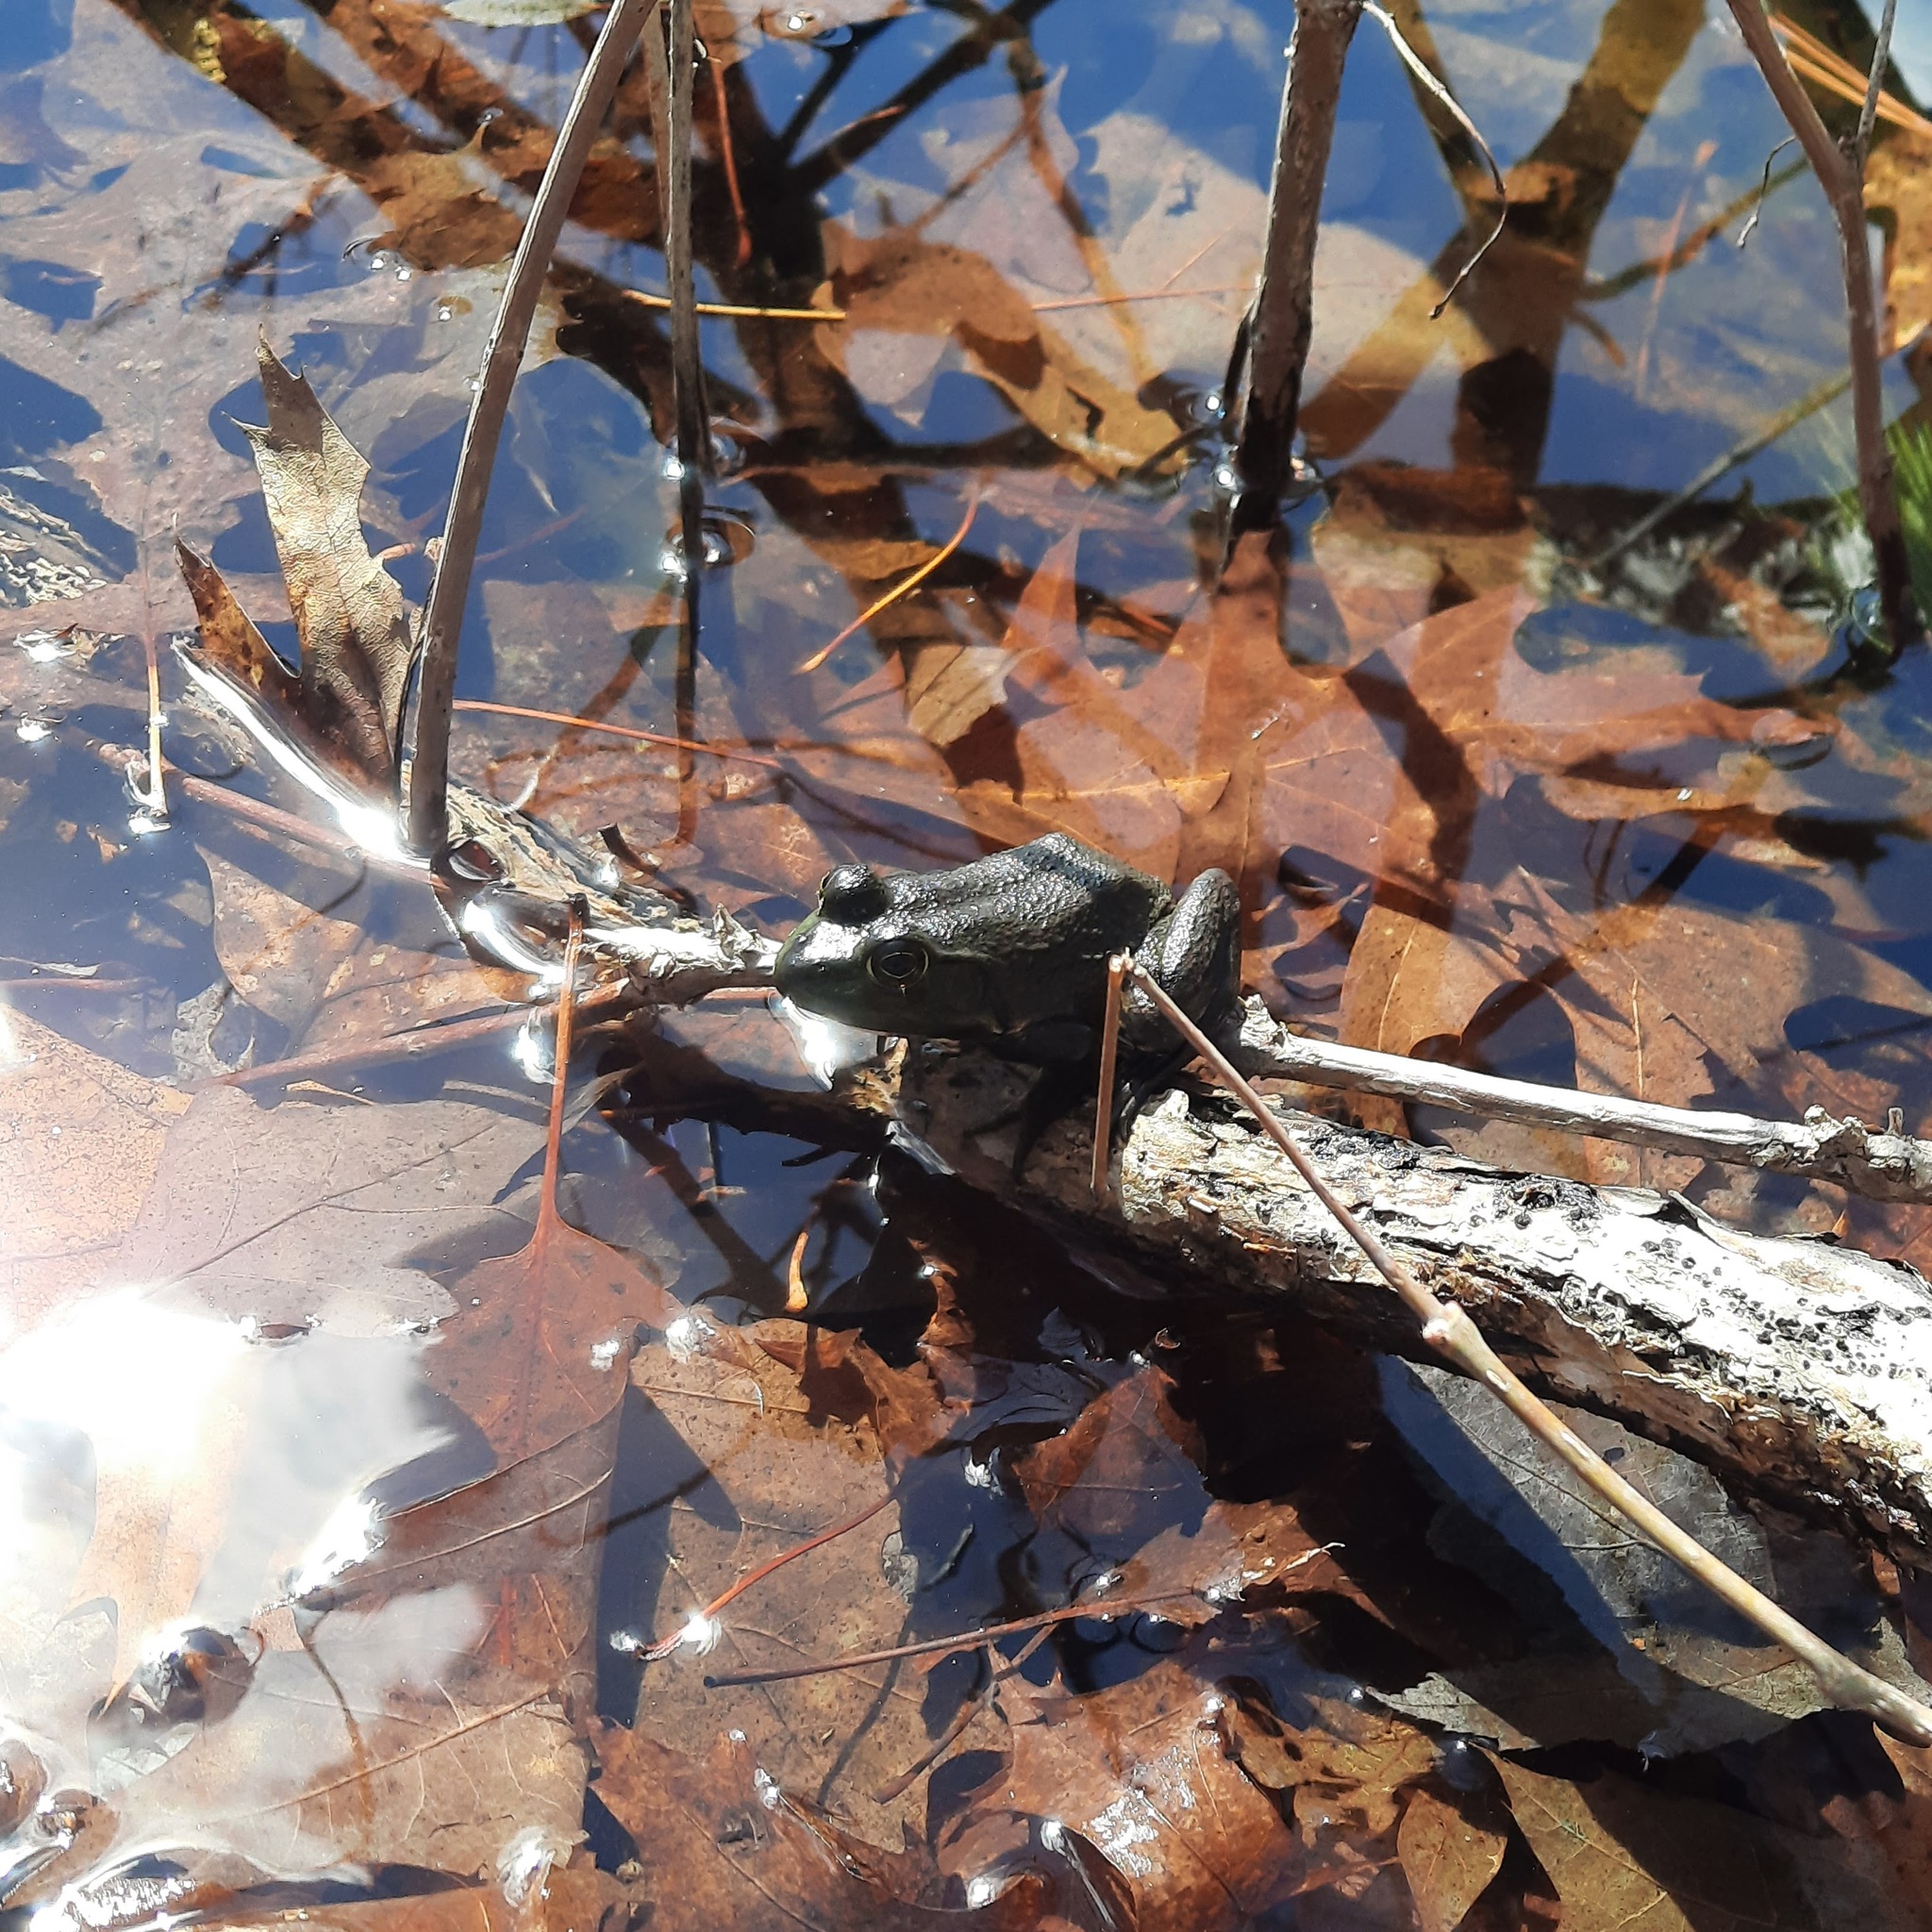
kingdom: Animalia
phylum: Chordata
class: Amphibia
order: Anura
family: Ranidae
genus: Lithobates
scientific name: Lithobates clamitans
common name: Green frog
